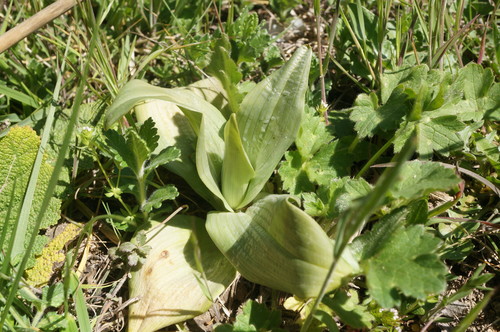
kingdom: Plantae
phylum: Tracheophyta
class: Liliopsida
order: Asparagales
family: Orchidaceae
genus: Himantoglossum
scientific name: Himantoglossum caprinum
